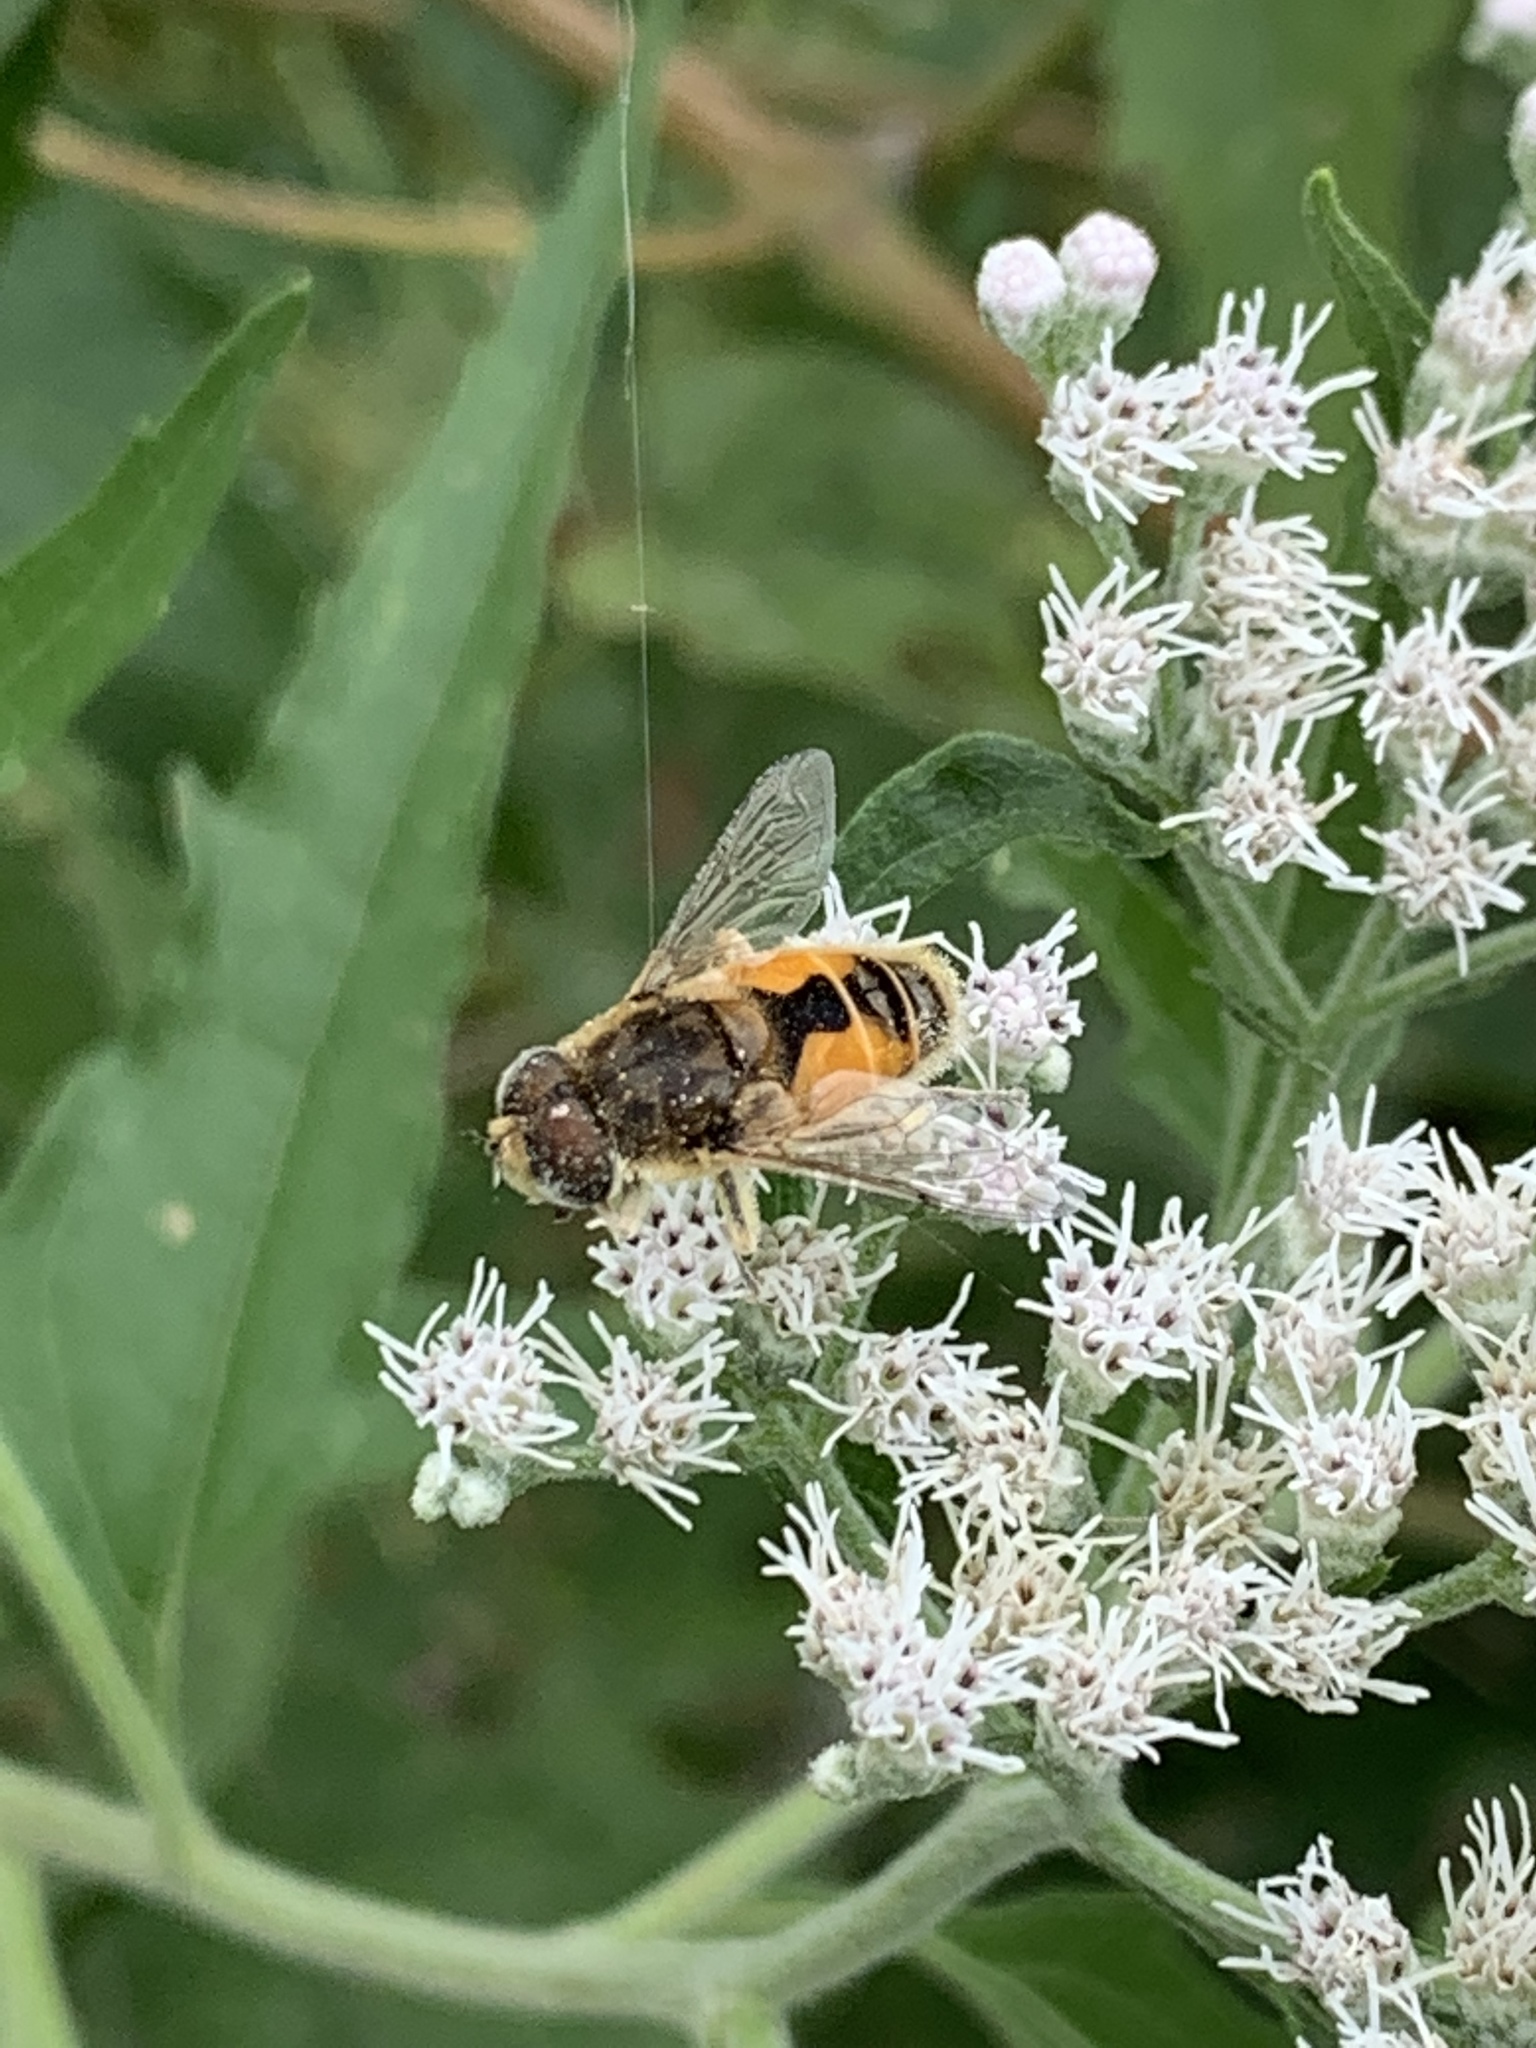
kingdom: Animalia
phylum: Arthropoda
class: Insecta
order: Diptera
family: Syrphidae
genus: Eristalis
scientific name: Eristalis arbustorum
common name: Hover fly
